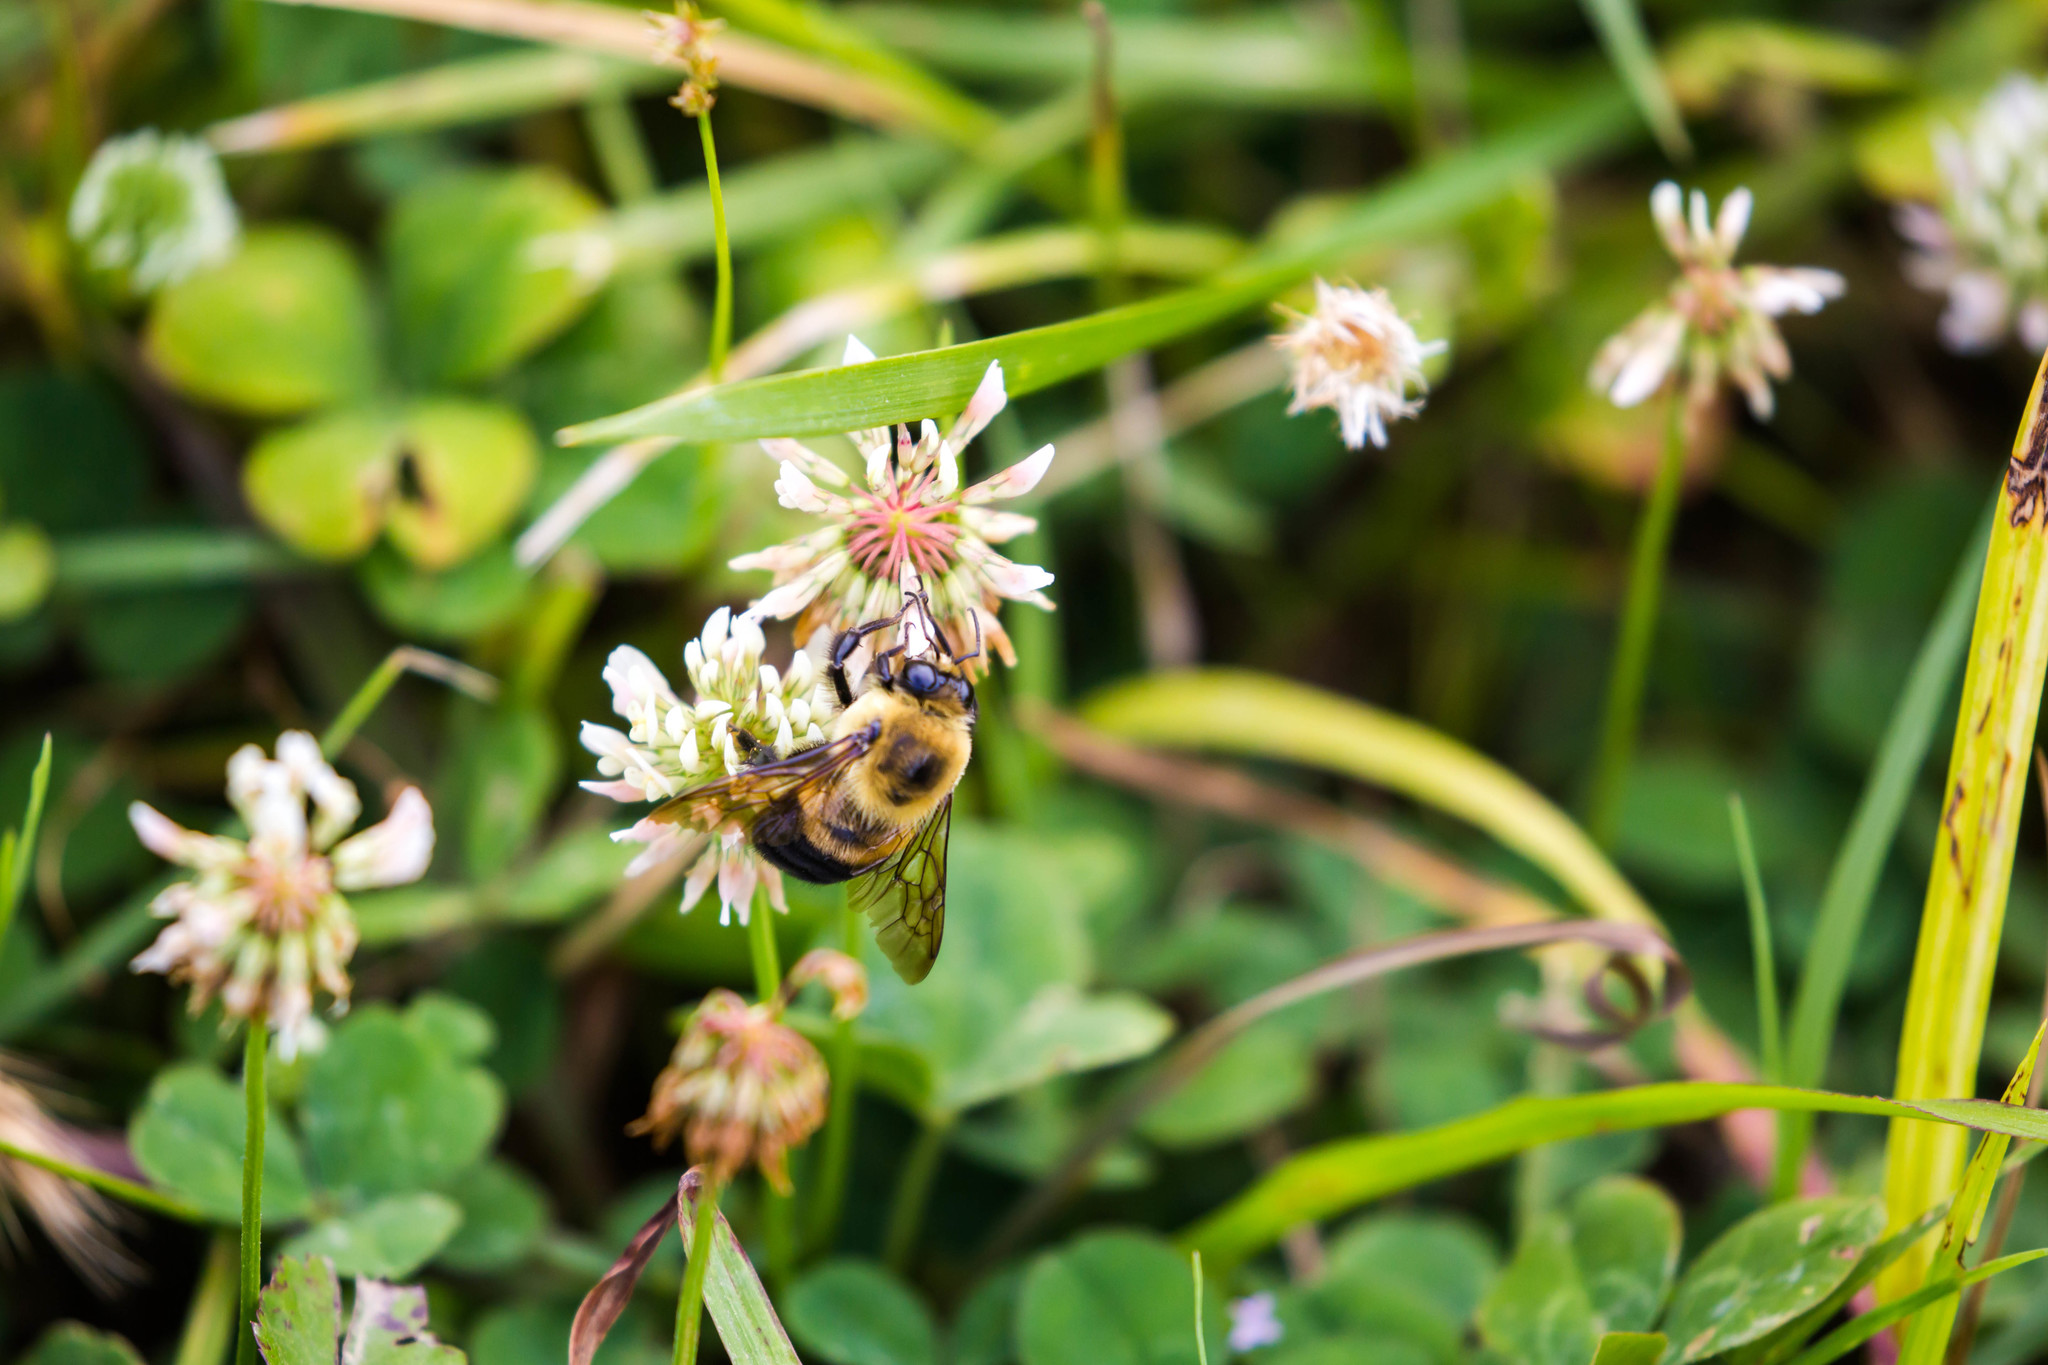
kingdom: Animalia
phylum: Arthropoda
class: Insecta
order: Hymenoptera
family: Apidae
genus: Bombus
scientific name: Bombus griseocollis
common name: Brown-belted bumble bee
